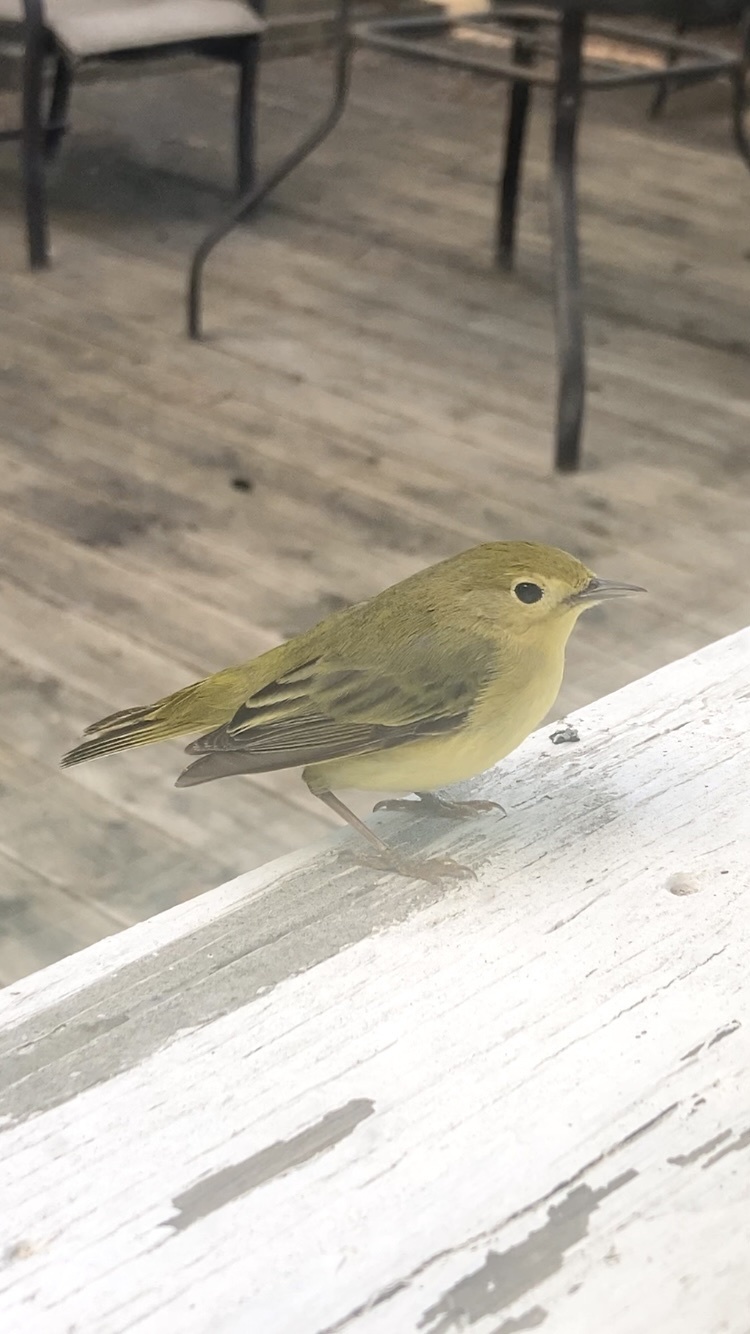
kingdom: Animalia
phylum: Chordata
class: Aves
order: Passeriformes
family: Parulidae
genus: Setophaga
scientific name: Setophaga petechia
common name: Yellow warbler
